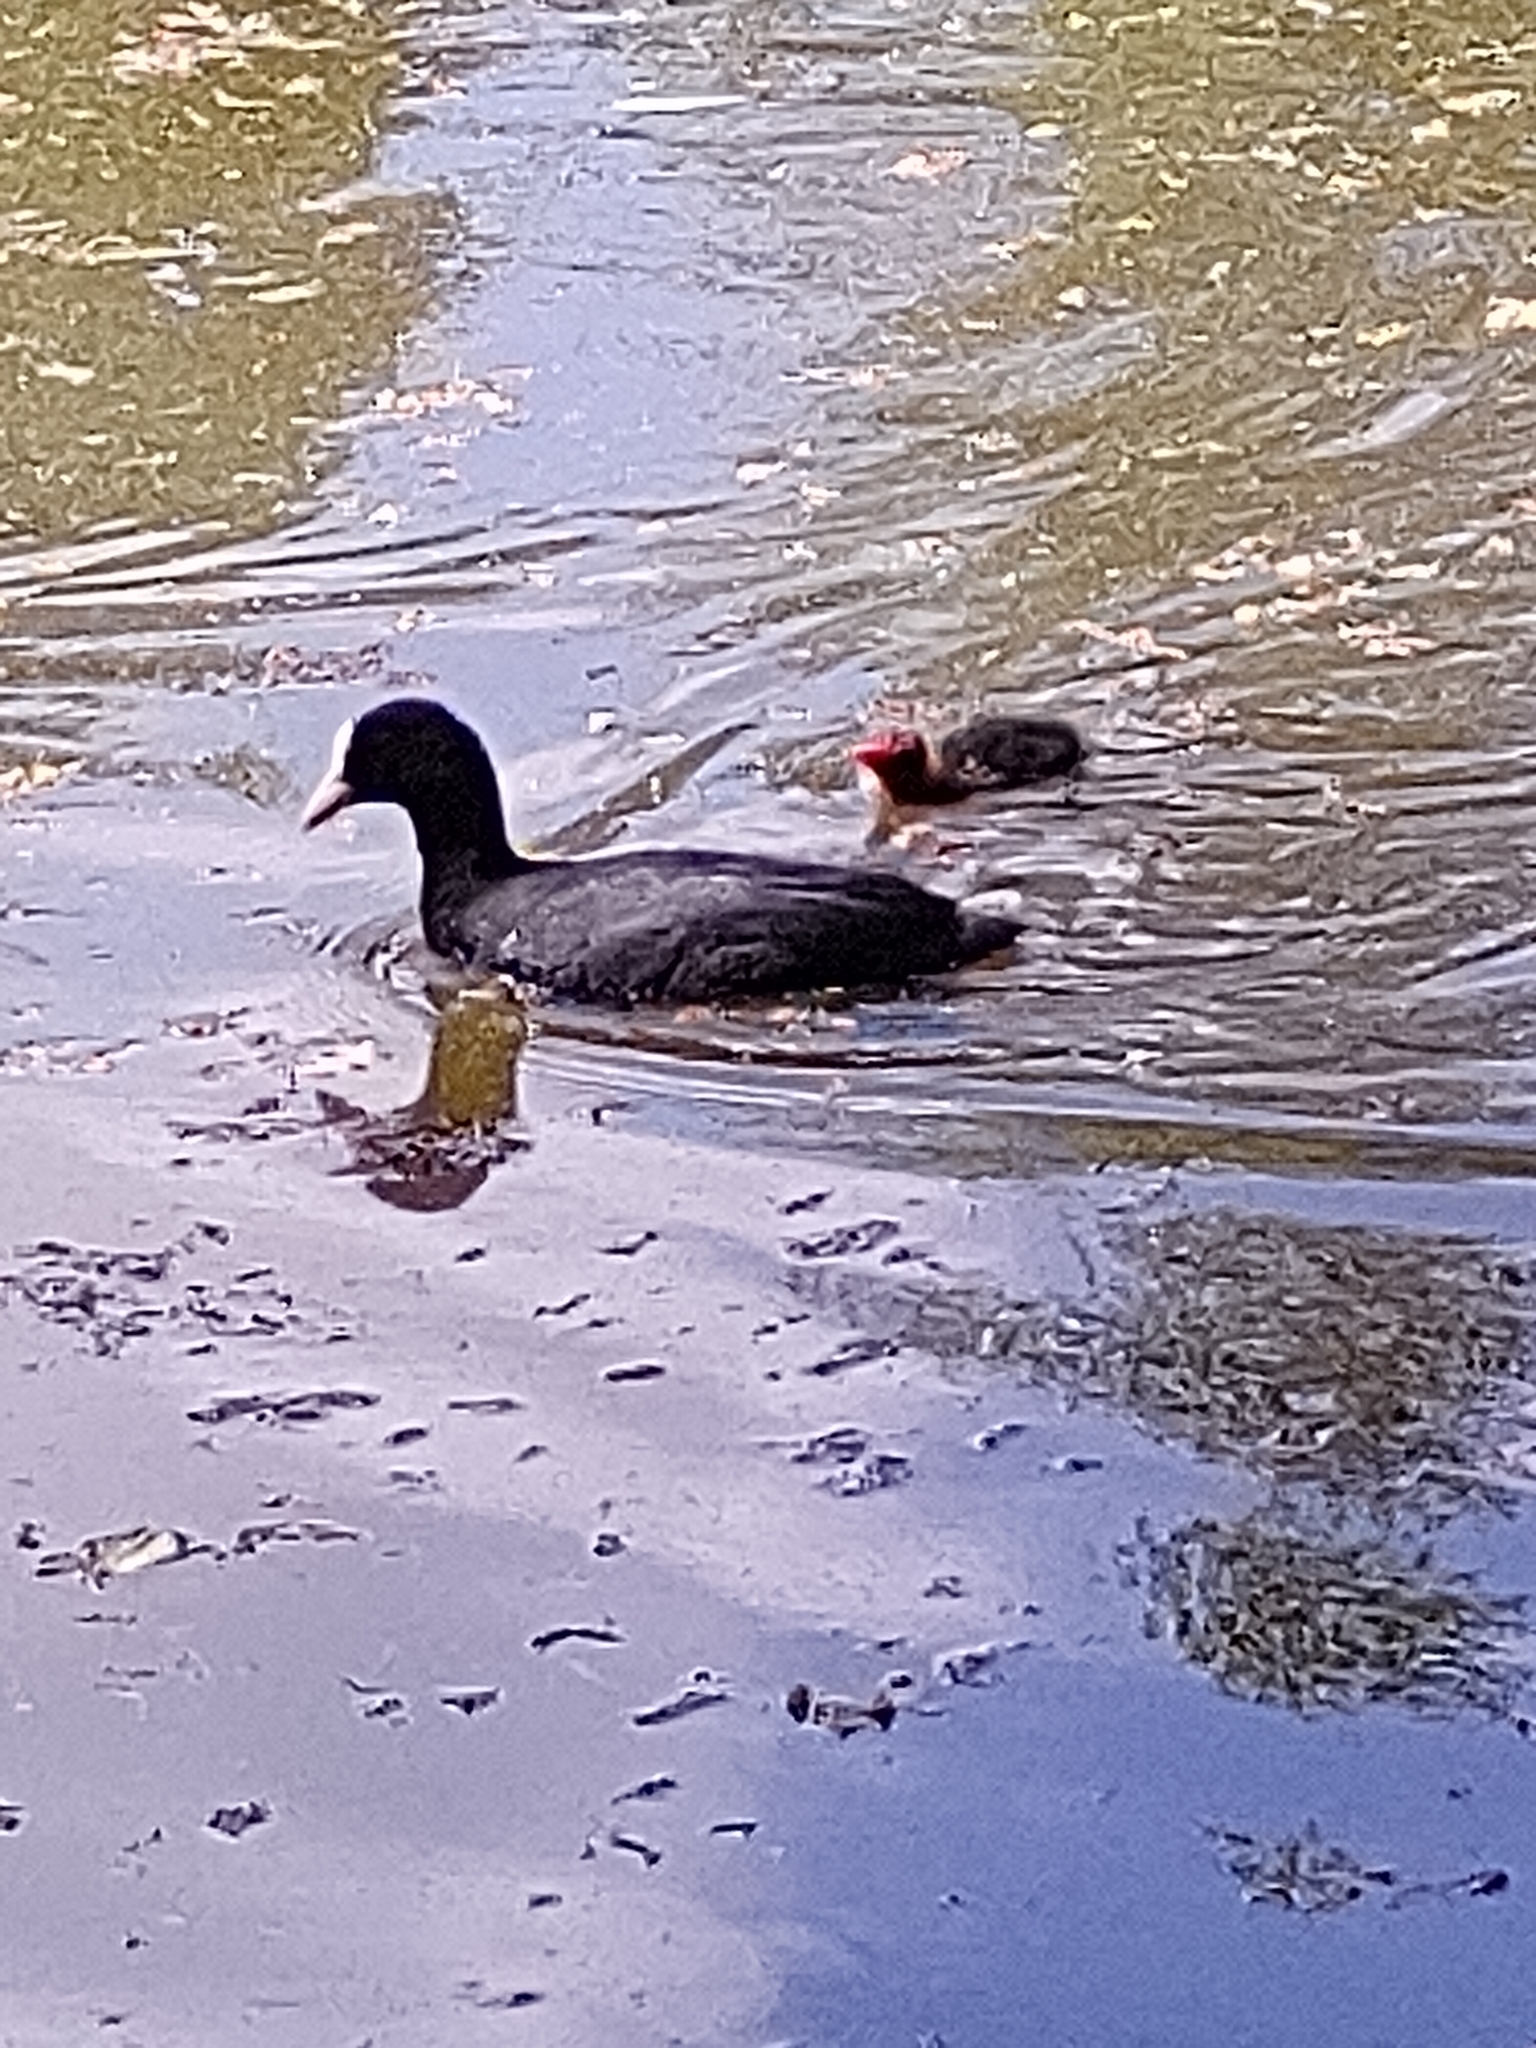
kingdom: Animalia
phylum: Chordata
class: Aves
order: Gruiformes
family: Rallidae
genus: Fulica
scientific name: Fulica atra
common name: Eurasian coot
